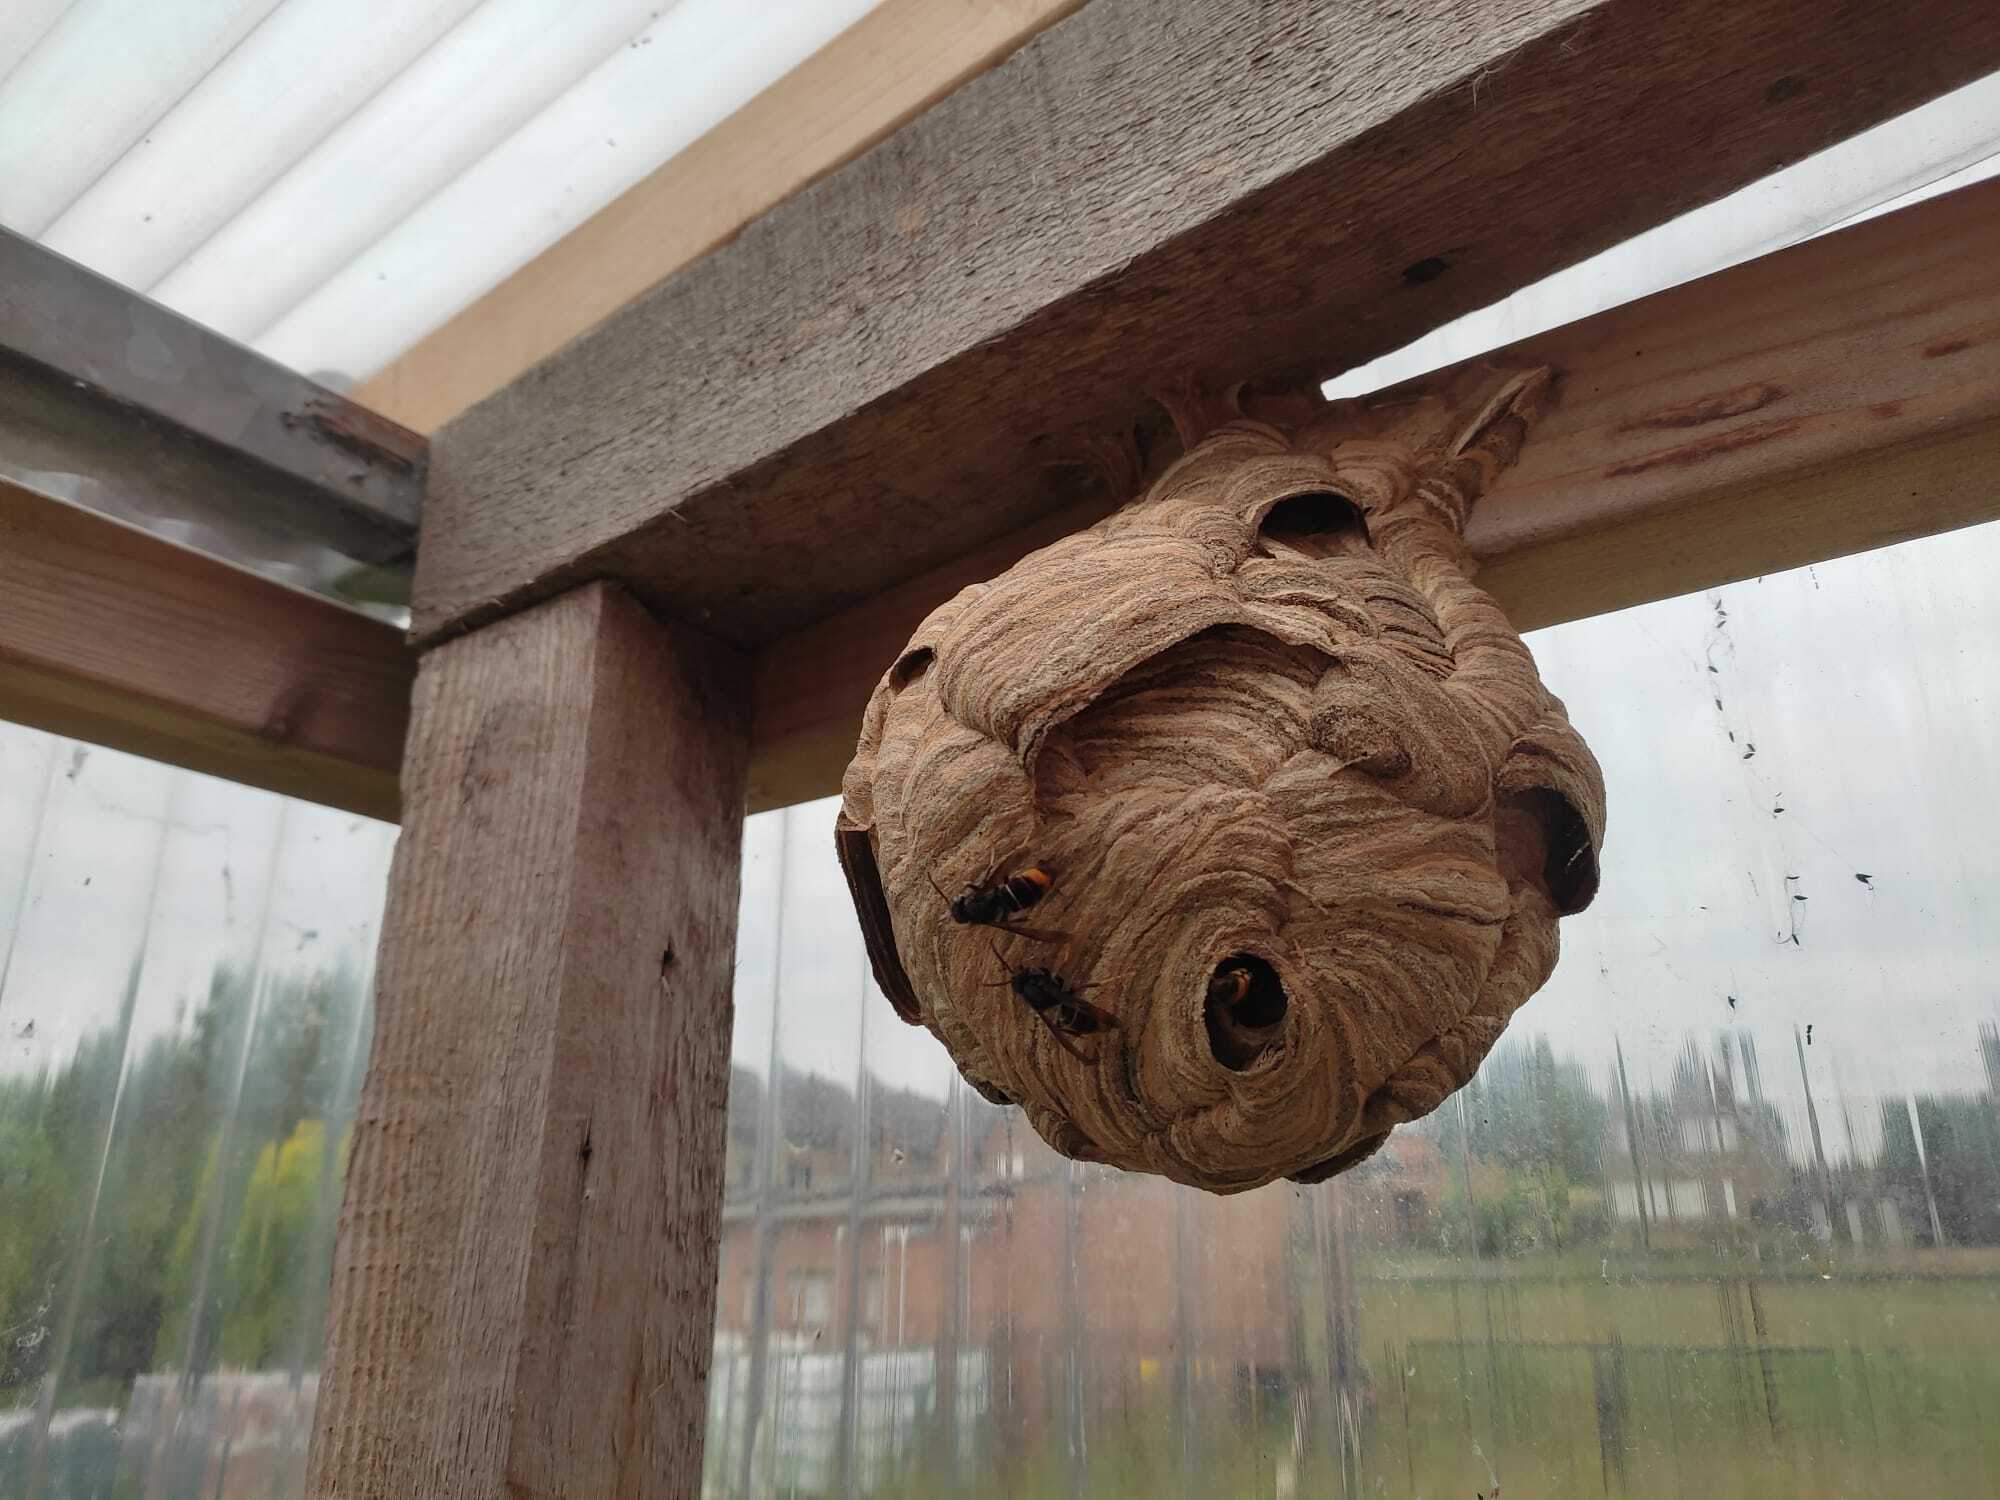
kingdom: Animalia
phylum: Arthropoda
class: Insecta
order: Hymenoptera
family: Vespidae
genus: Vespa
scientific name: Vespa velutina
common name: Asian hornet
